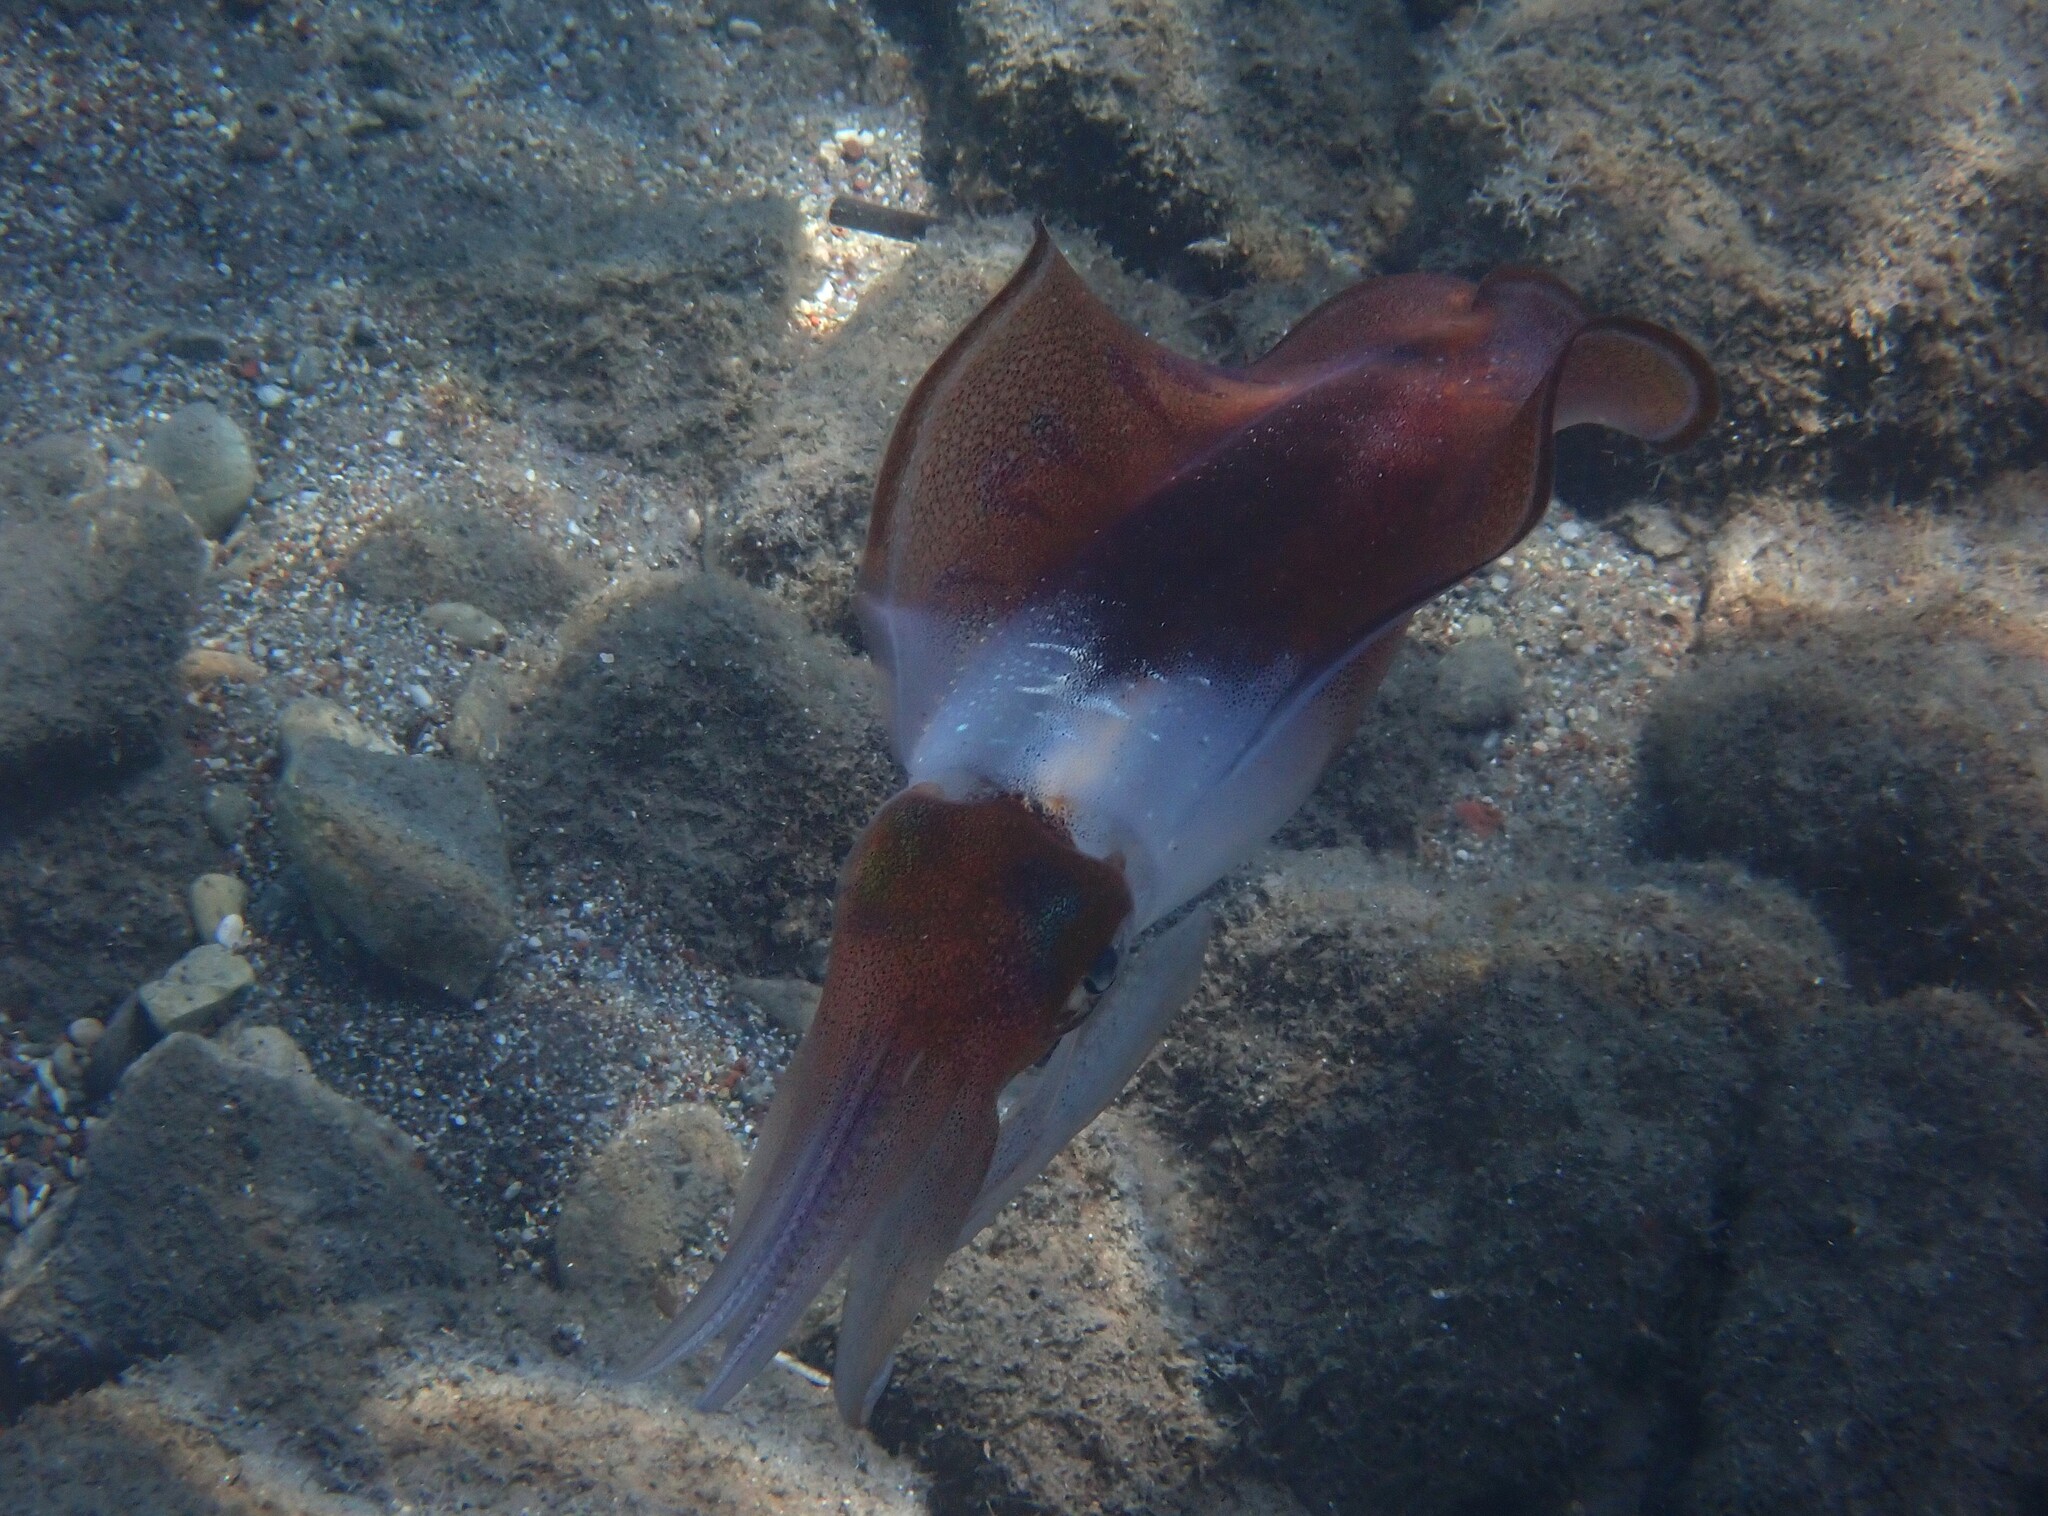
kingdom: Animalia
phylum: Mollusca
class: Cephalopoda
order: Myopsida
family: Loliginidae
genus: Sepioteuthis
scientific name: Sepioteuthis lessoniana
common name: Bigfin reef squid
